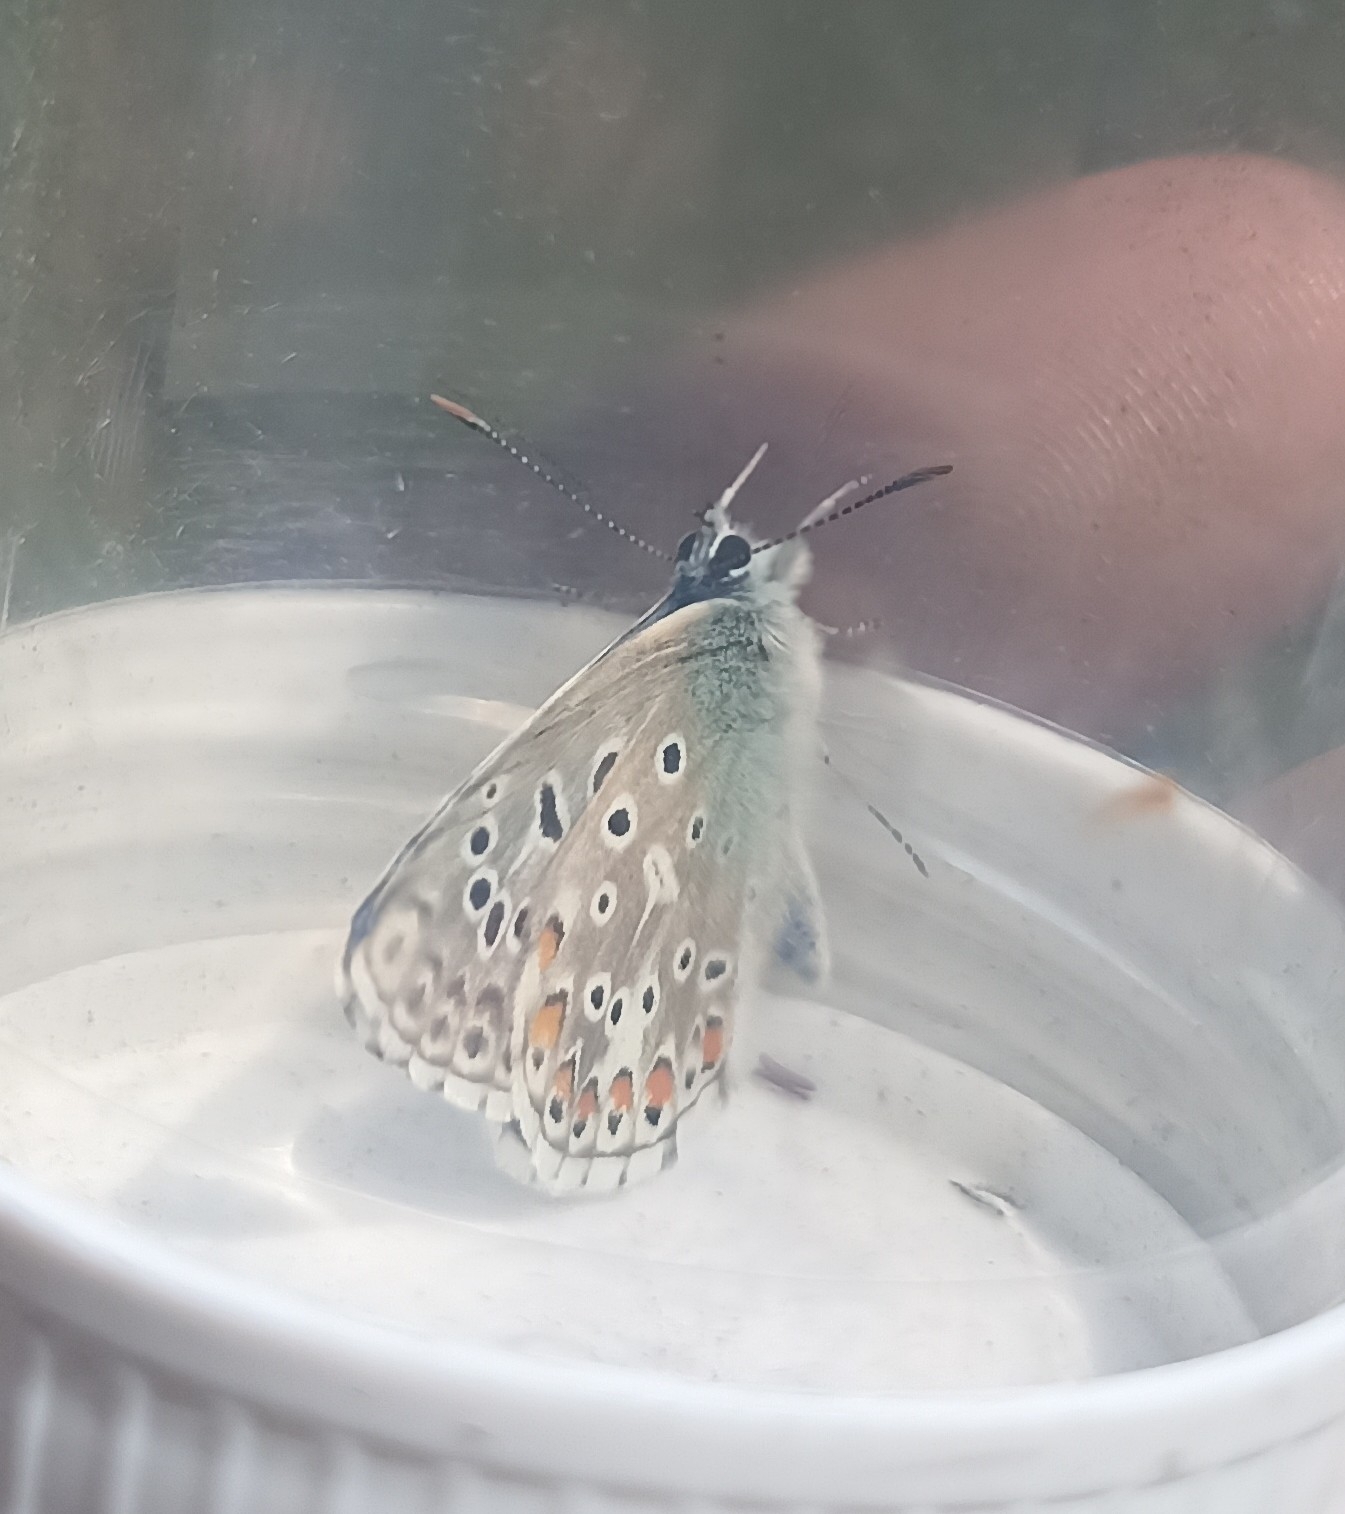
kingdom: Animalia
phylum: Arthropoda
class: Insecta
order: Lepidoptera
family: Lycaenidae
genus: Polyommatus
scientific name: Polyommatus icarus
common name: Common blue
